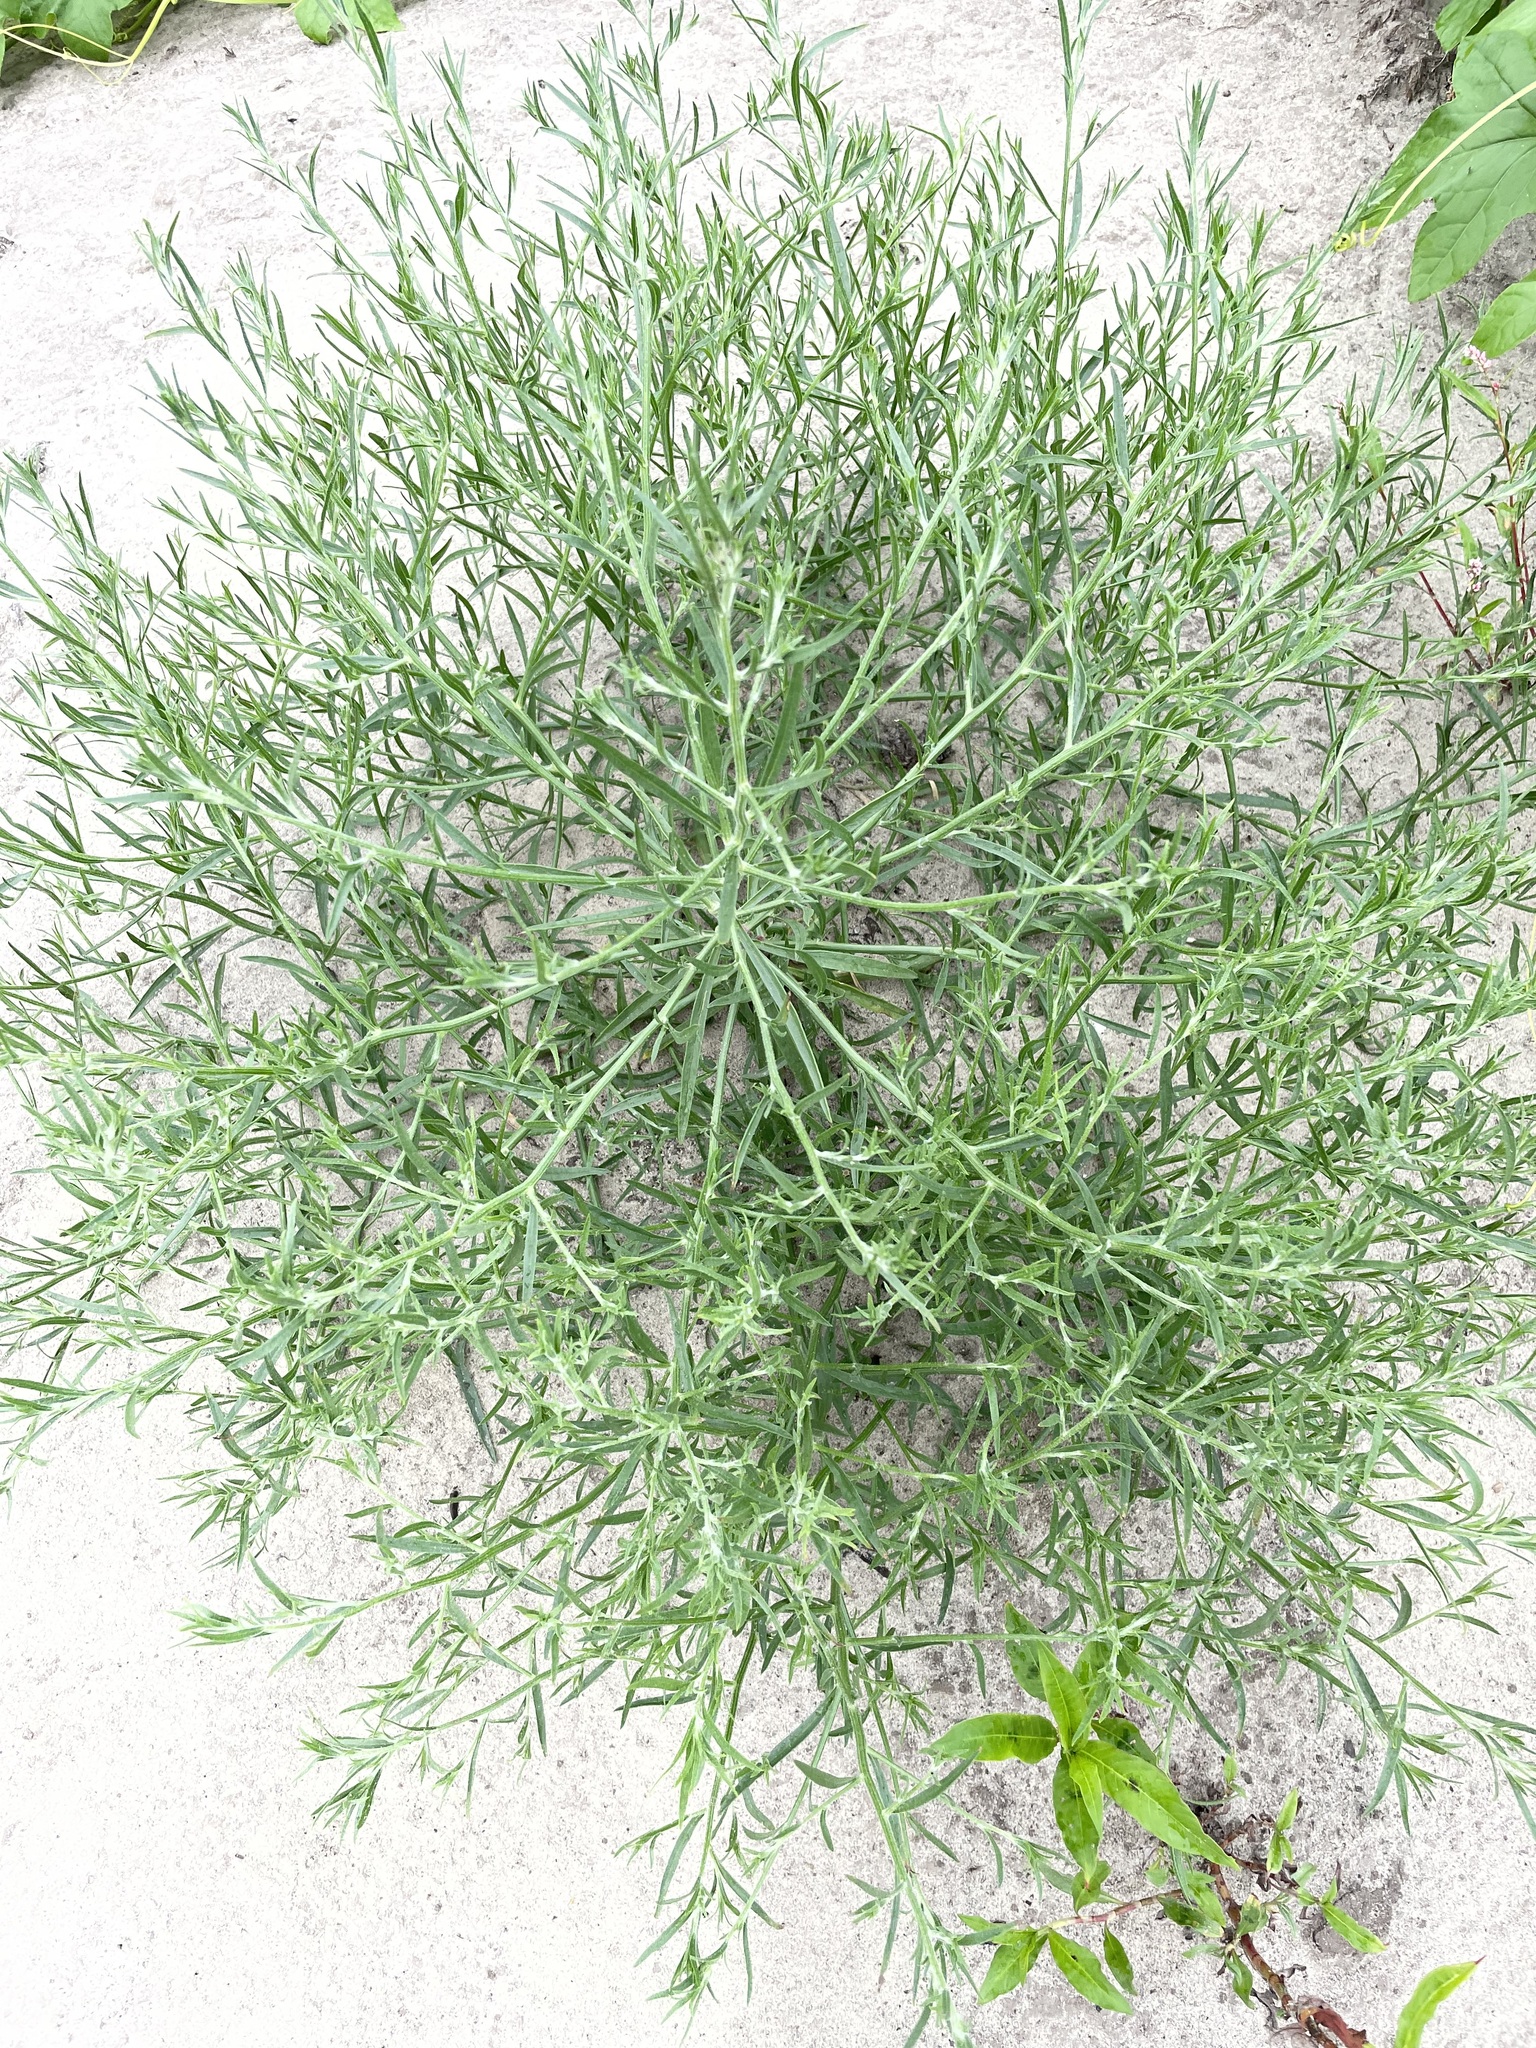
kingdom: Plantae
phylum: Tracheophyta
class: Magnoliopsida
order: Caryophyllales
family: Amaranthaceae
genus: Corispermum
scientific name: Corispermum hyssopifolium
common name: Bugseed
